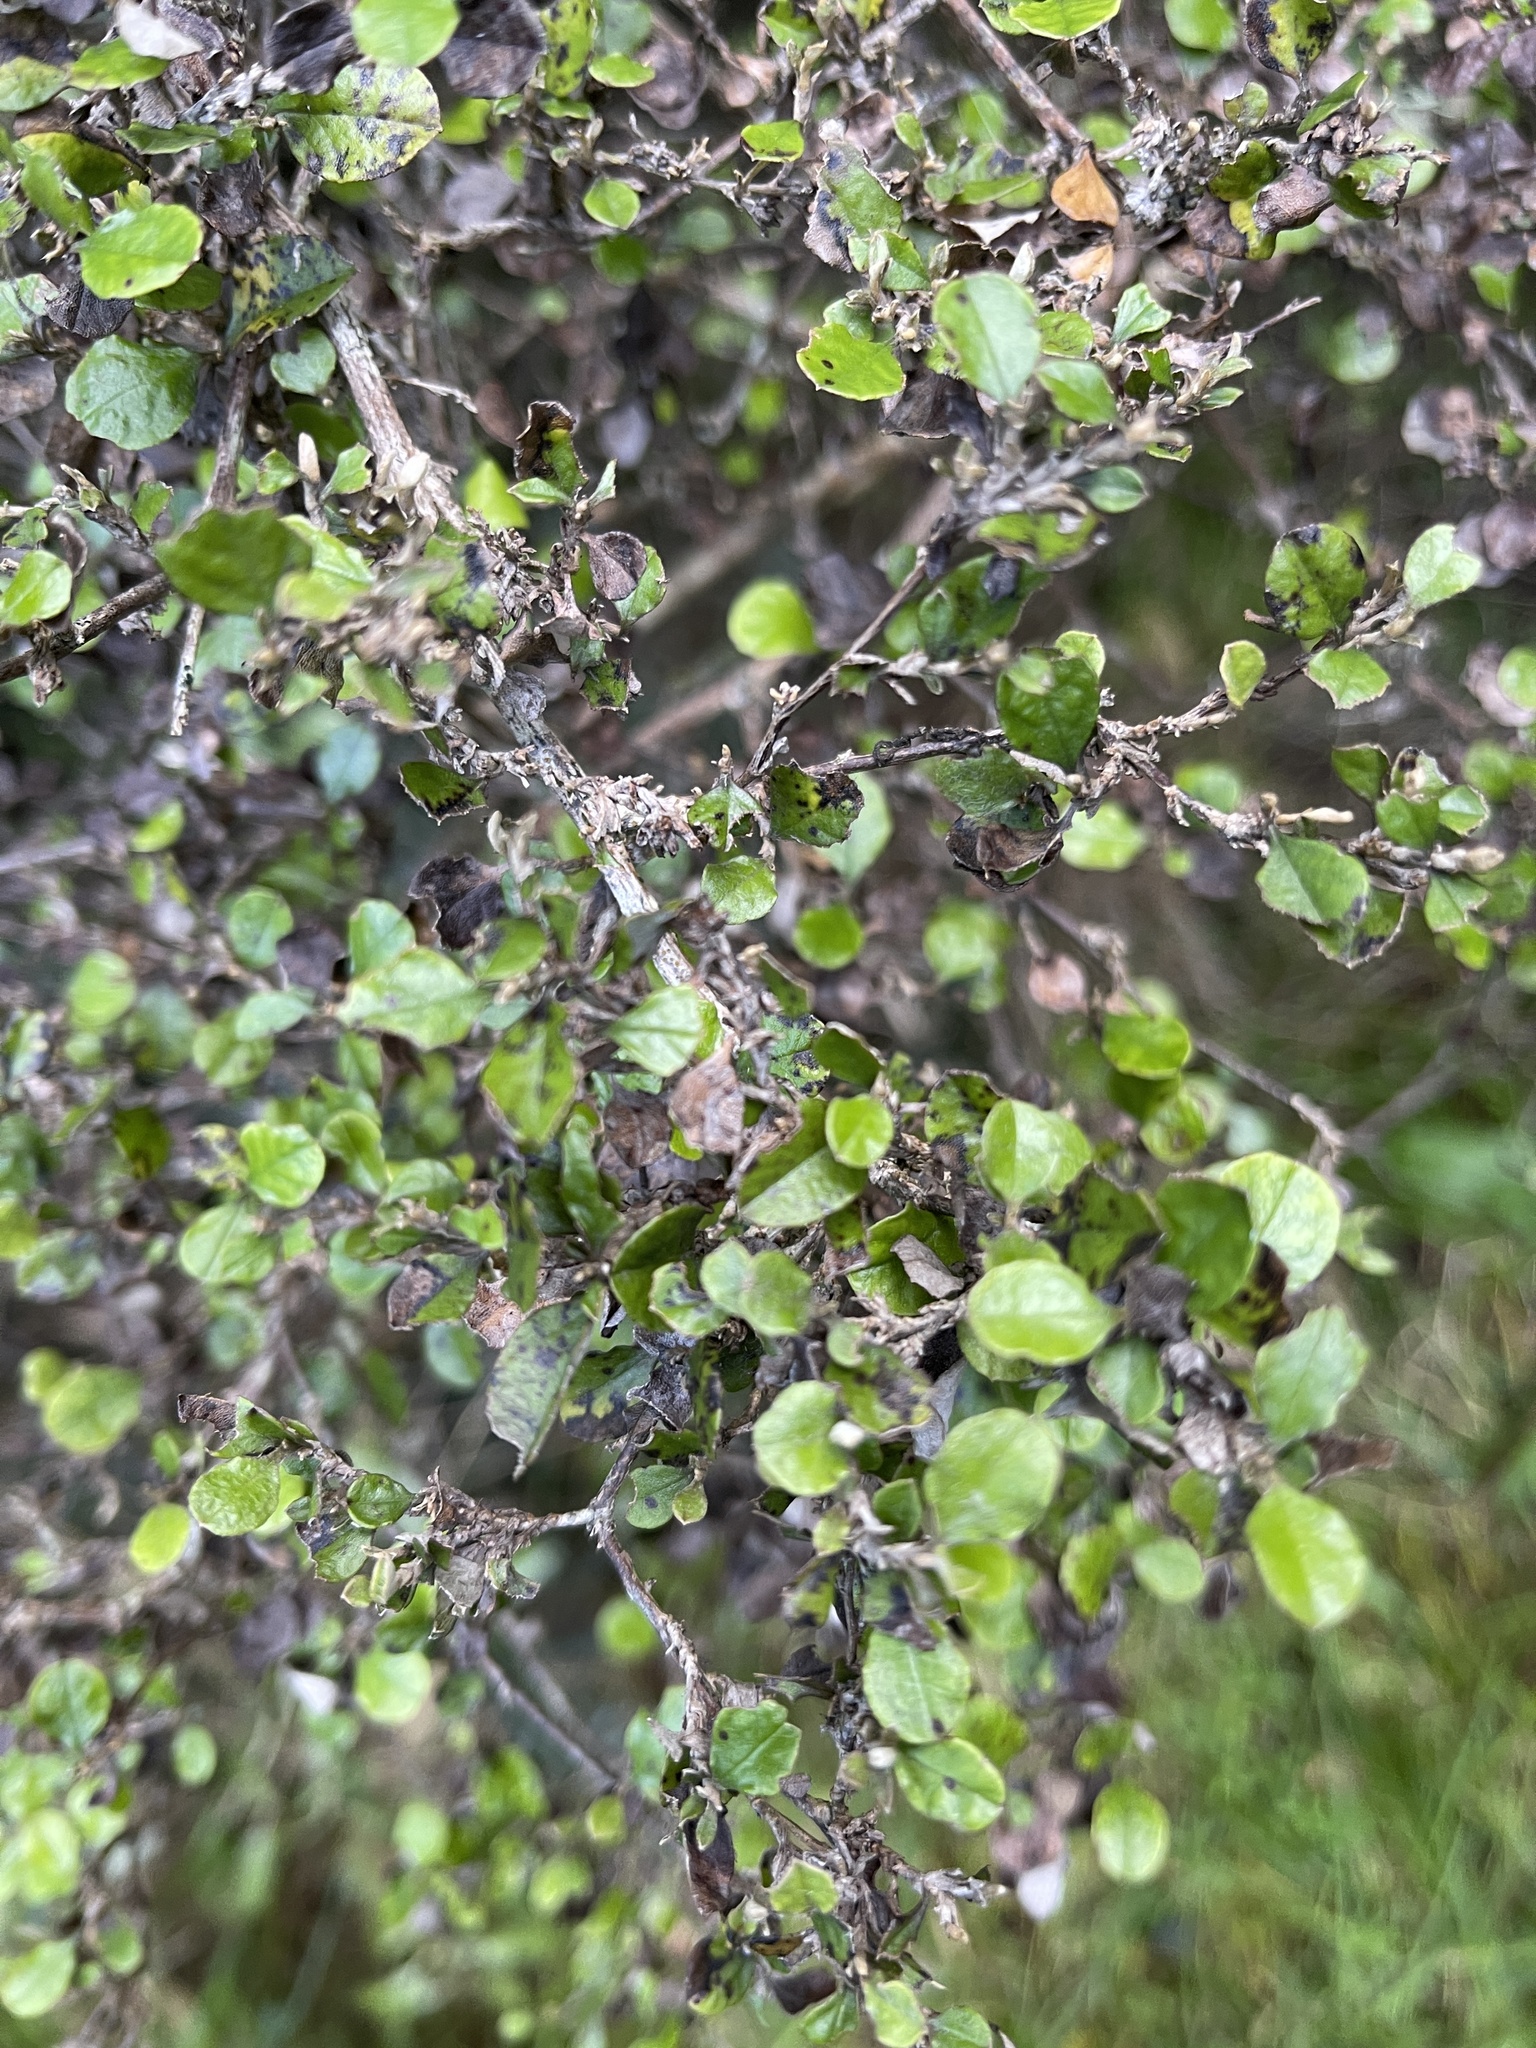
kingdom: Plantae
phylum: Tracheophyta
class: Magnoliopsida
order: Asterales
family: Asteraceae
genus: Ozothamnus
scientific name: Ozothamnus glomeratus
